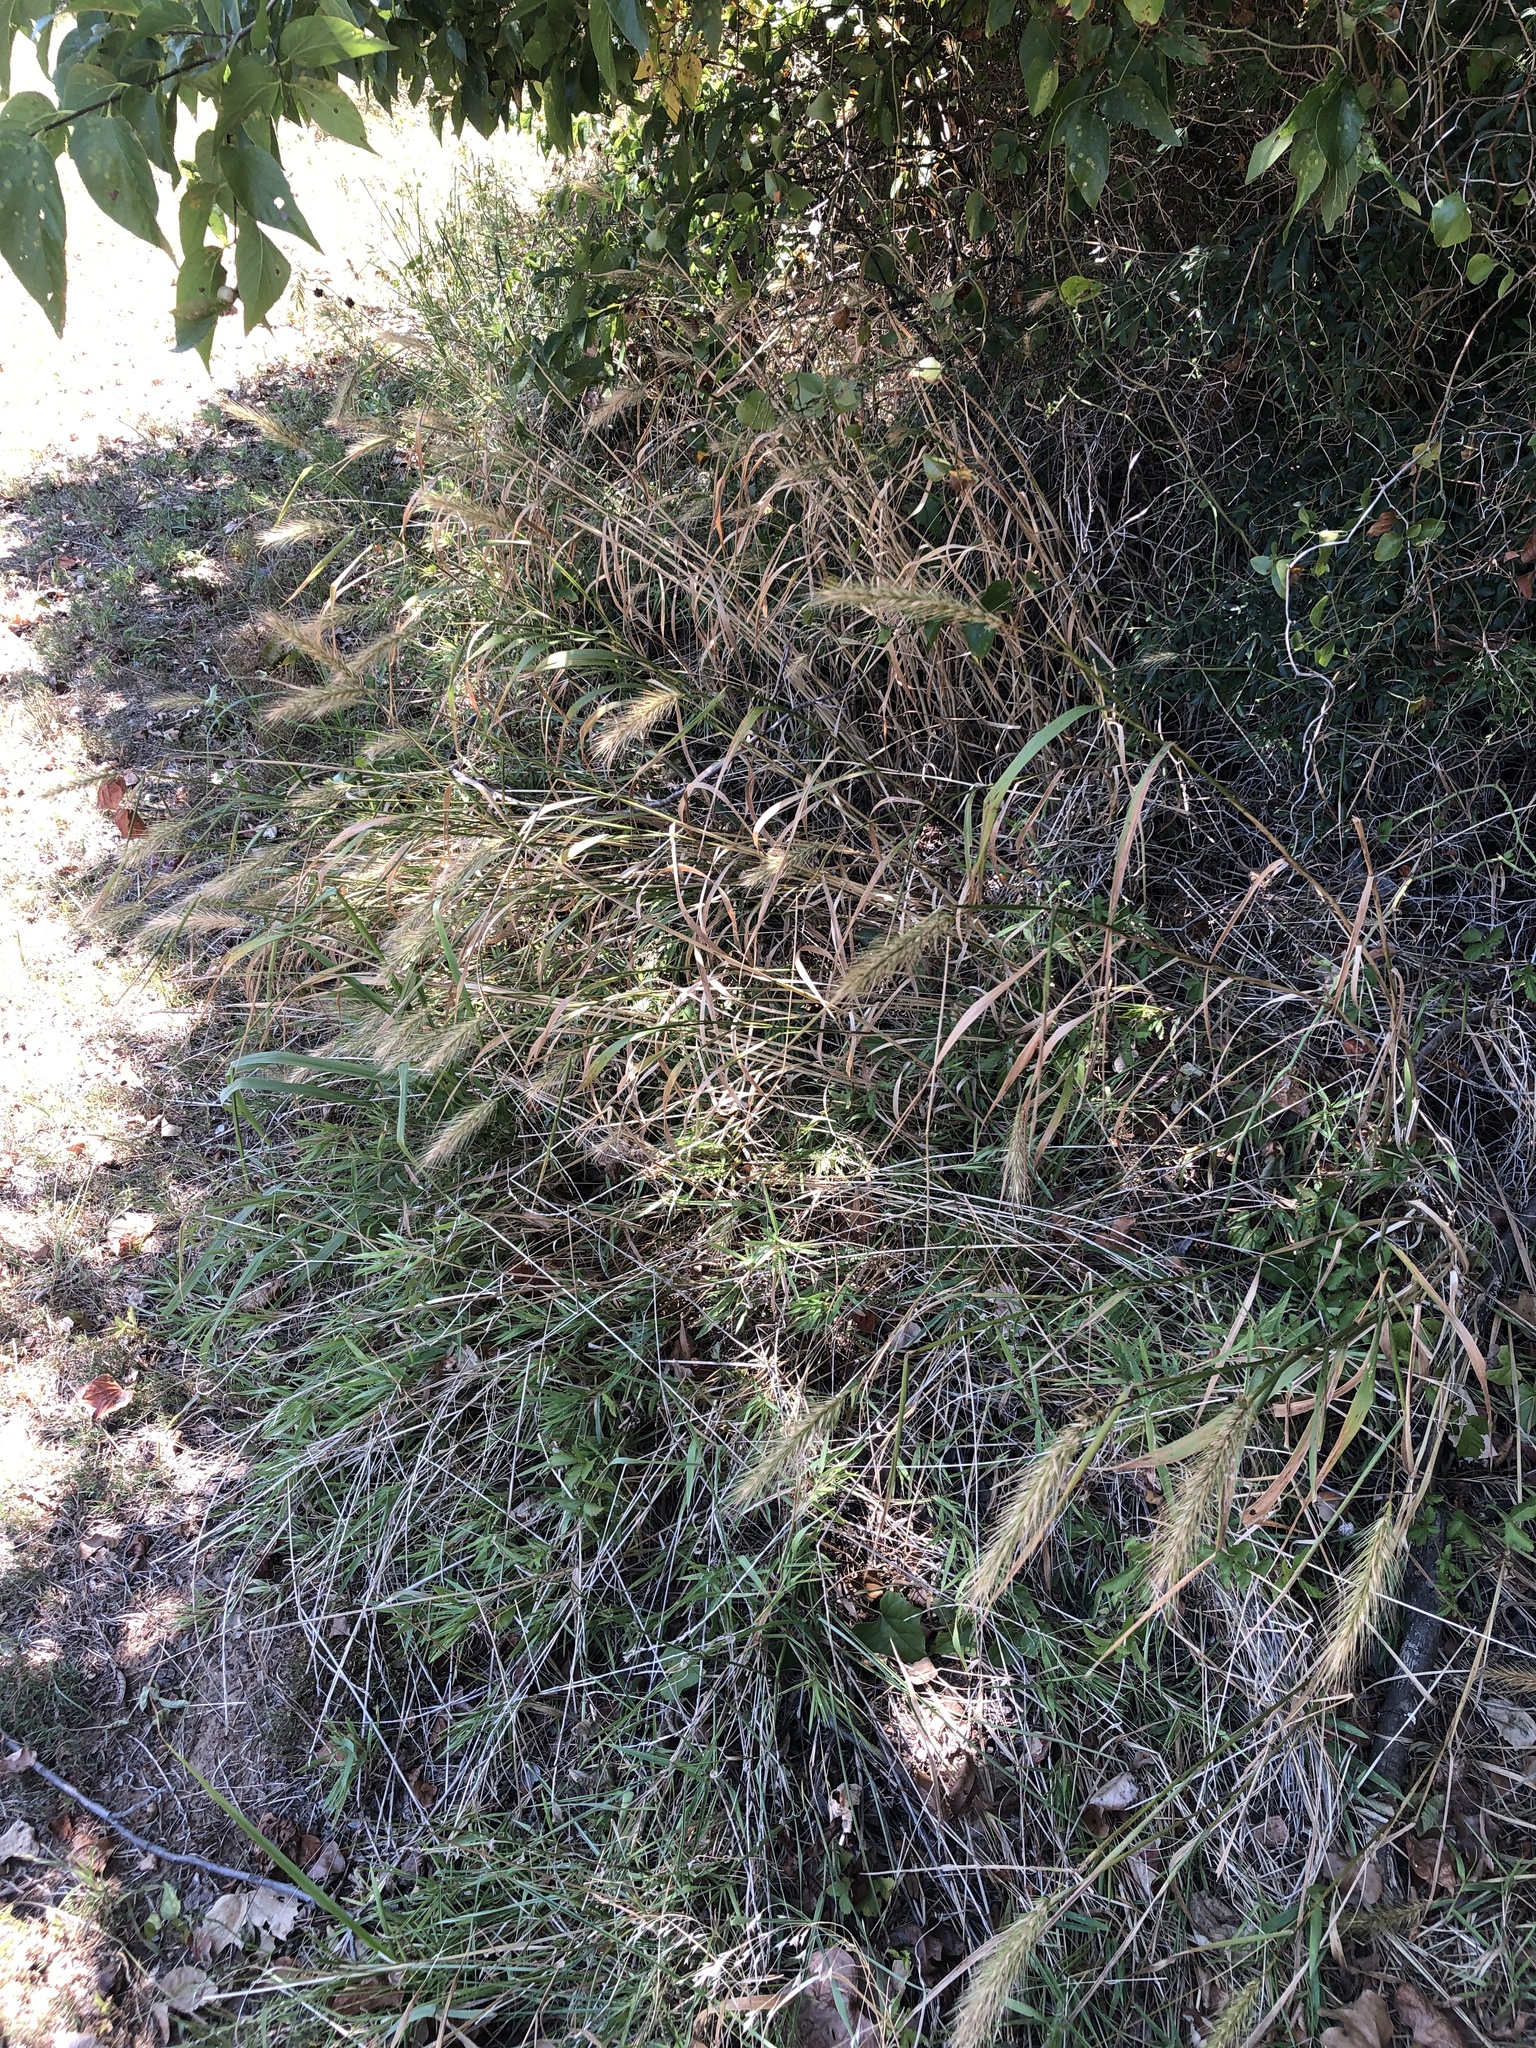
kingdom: Plantae
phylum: Tracheophyta
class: Liliopsida
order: Poales
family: Poaceae
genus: Elymus
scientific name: Elymus canadensis
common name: Canada wild rye
